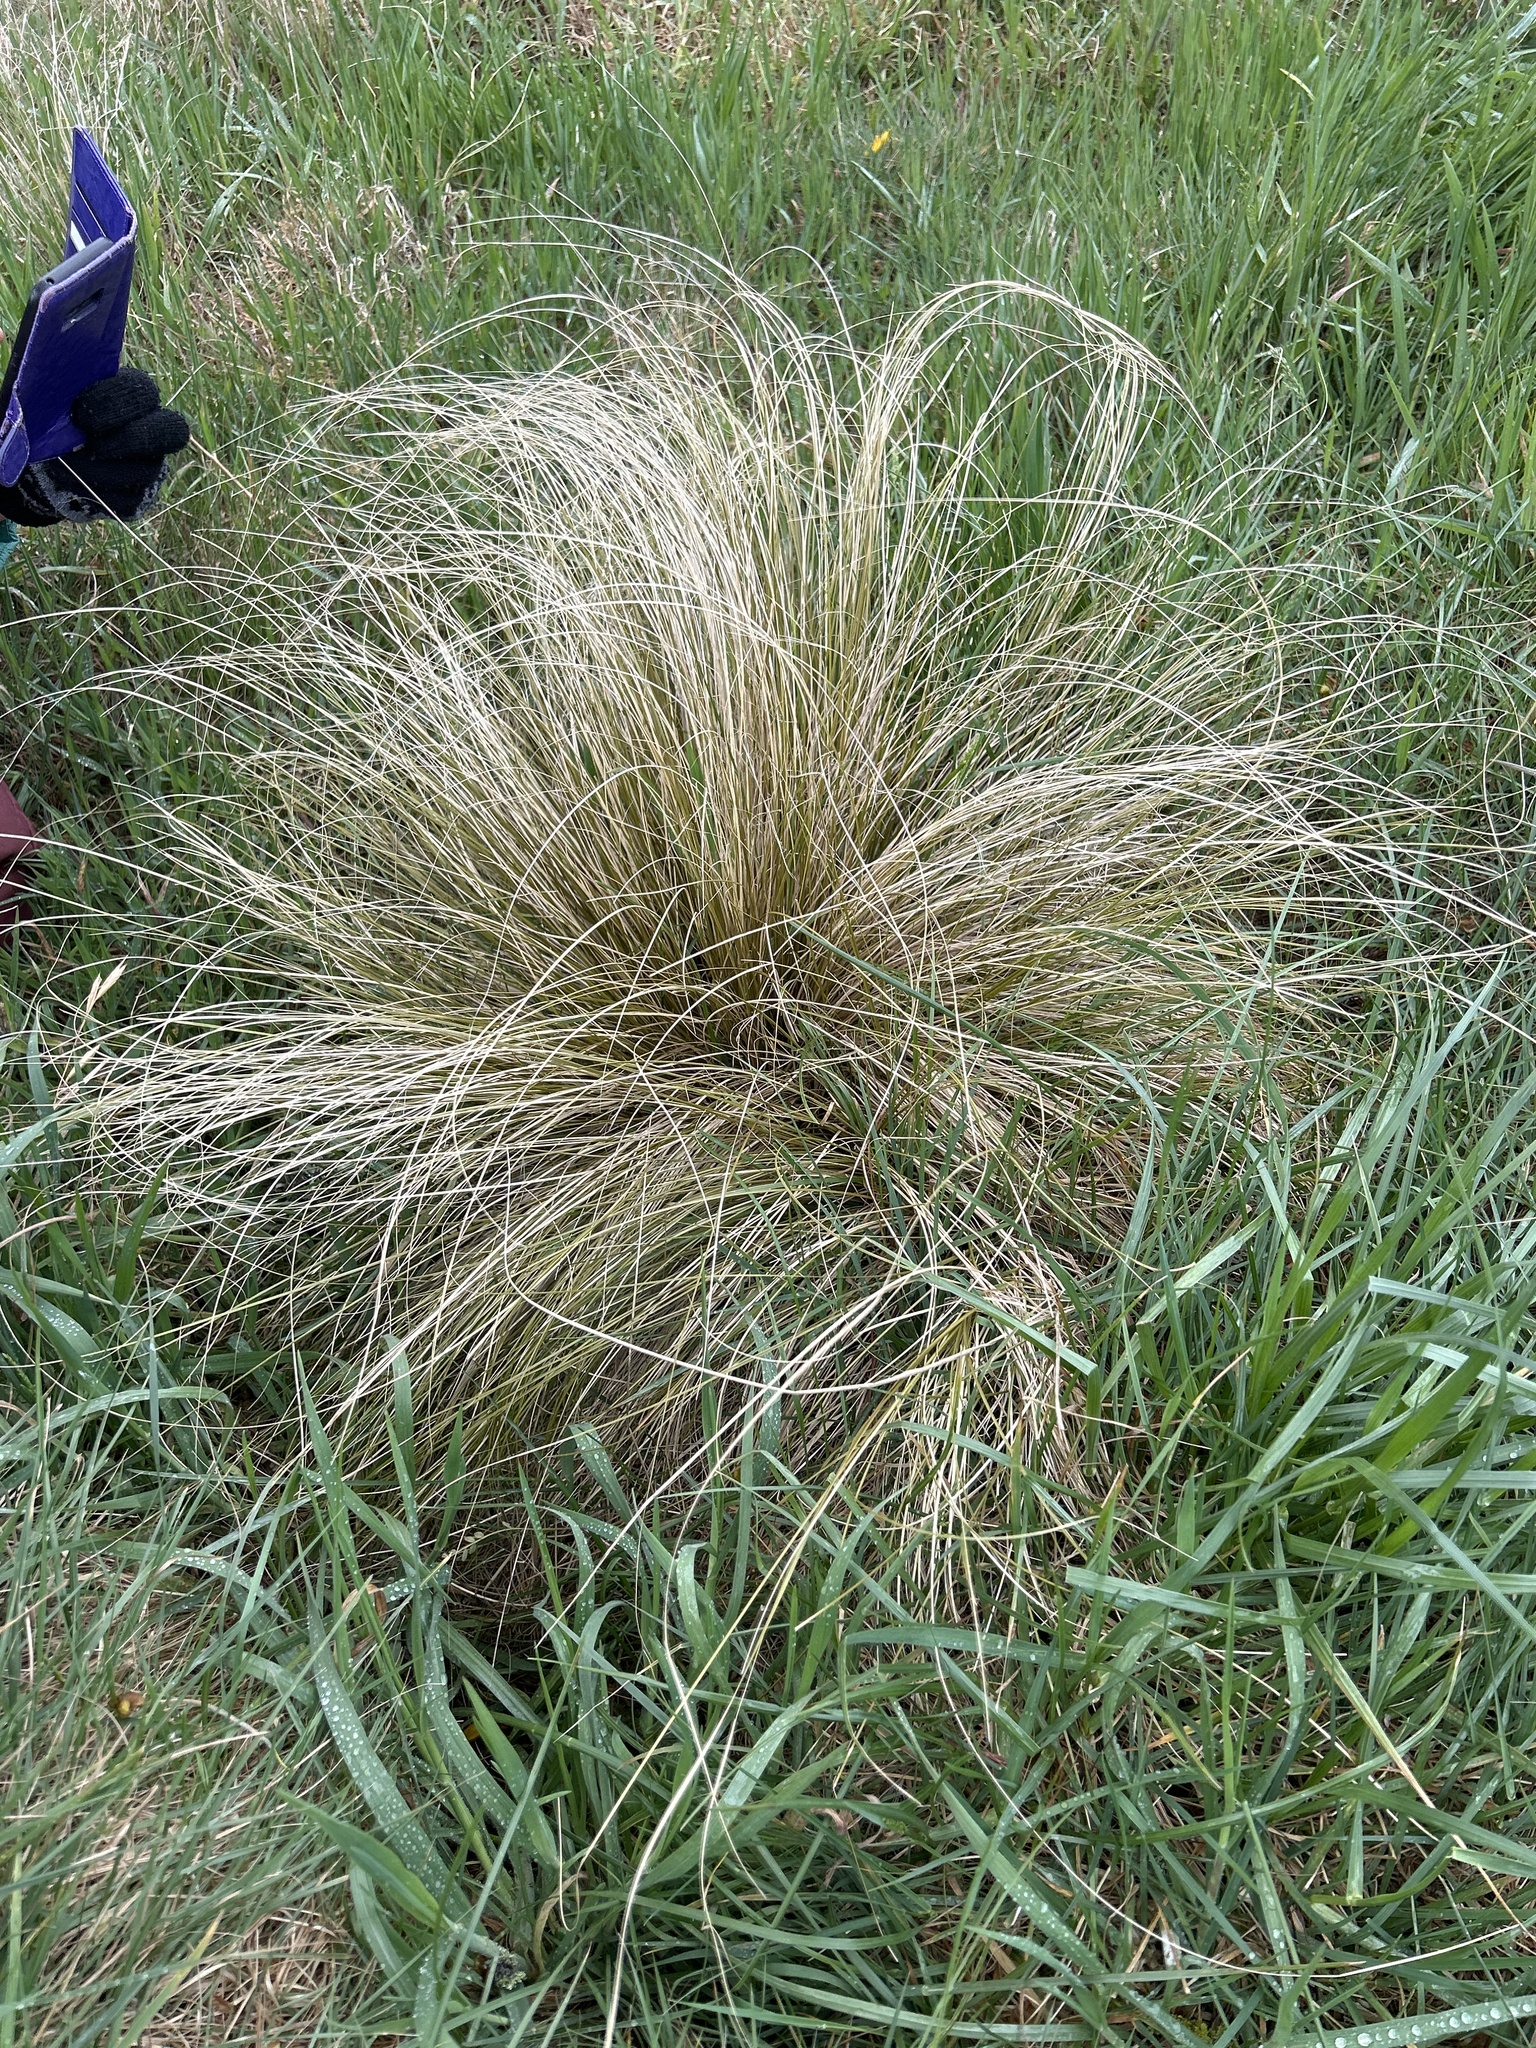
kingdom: Plantae
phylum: Tracheophyta
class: Liliopsida
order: Poales
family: Cyperaceae
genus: Carex
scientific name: Carex comans
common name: Longwood tussock
